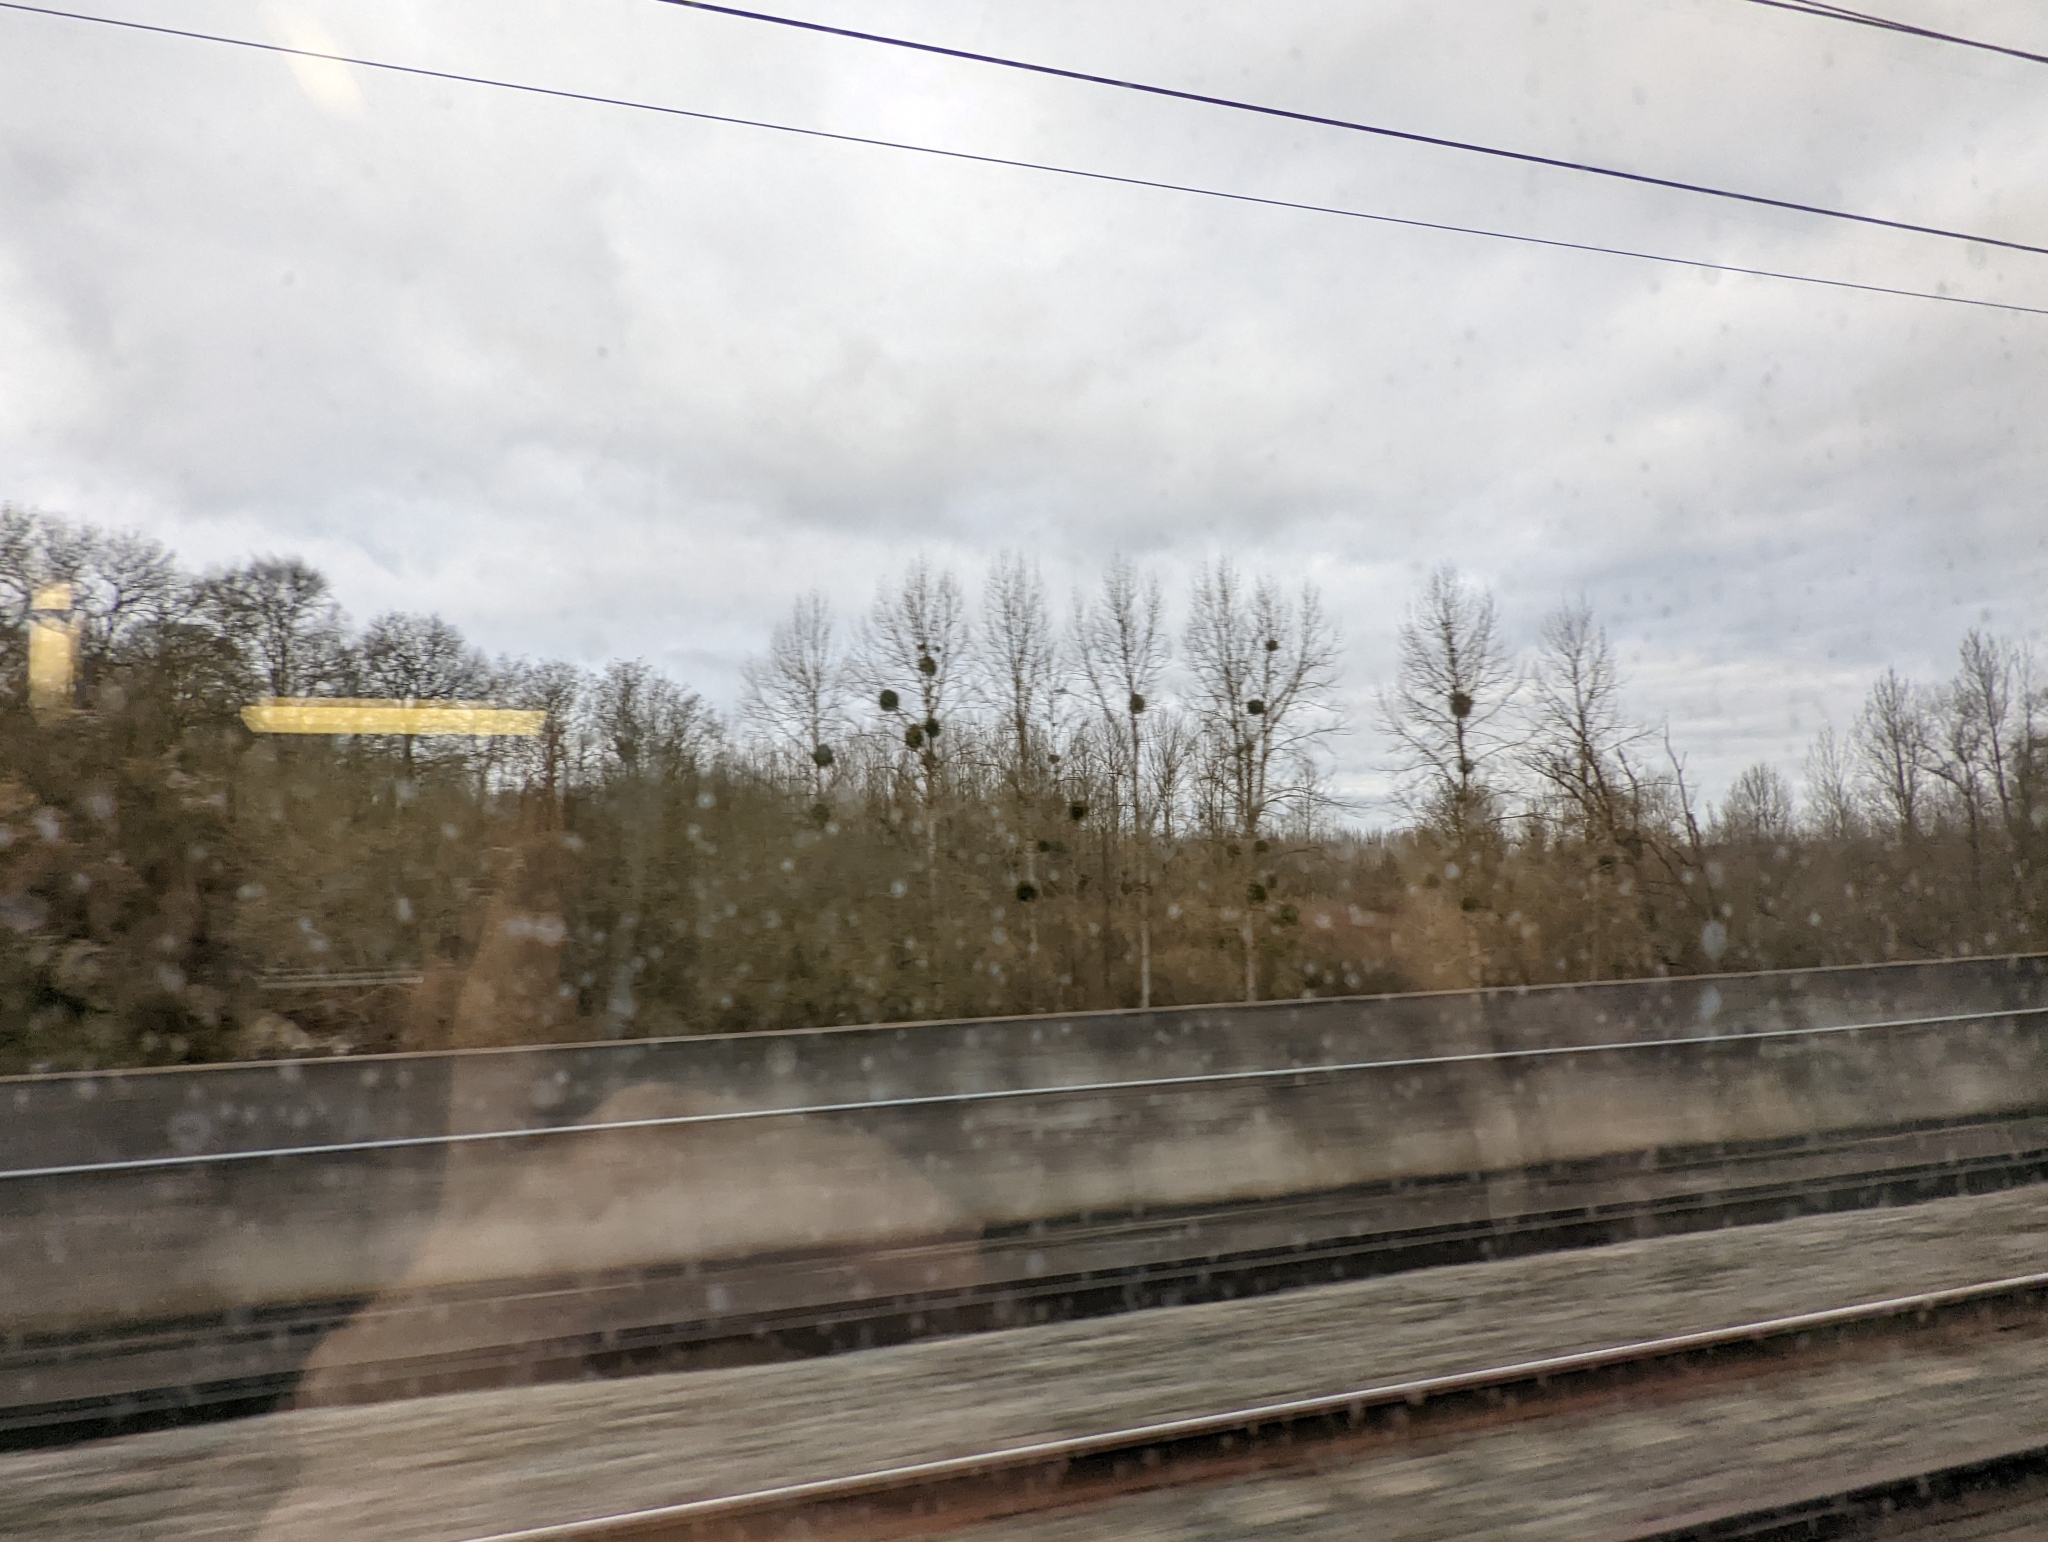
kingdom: Plantae
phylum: Tracheophyta
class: Magnoliopsida
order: Santalales
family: Viscaceae
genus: Viscum
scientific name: Viscum album
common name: Mistletoe
